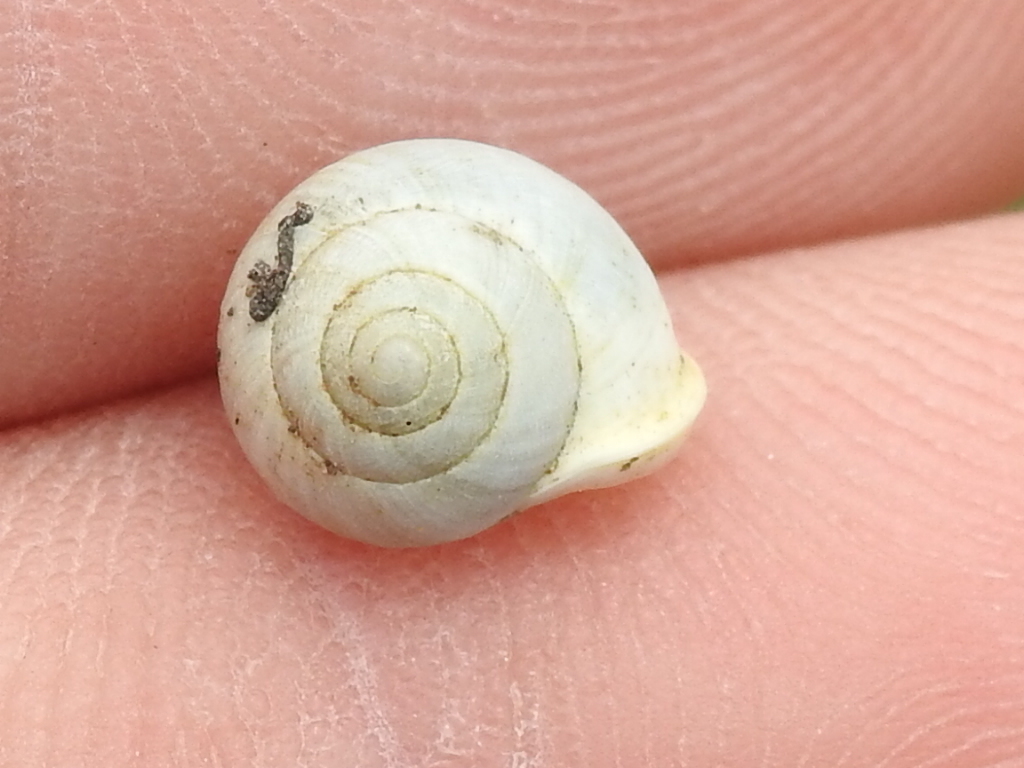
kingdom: Animalia
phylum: Mollusca
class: Gastropoda
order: Cycloneritida
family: Helicinidae
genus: Helicina
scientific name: Helicina orbiculata
